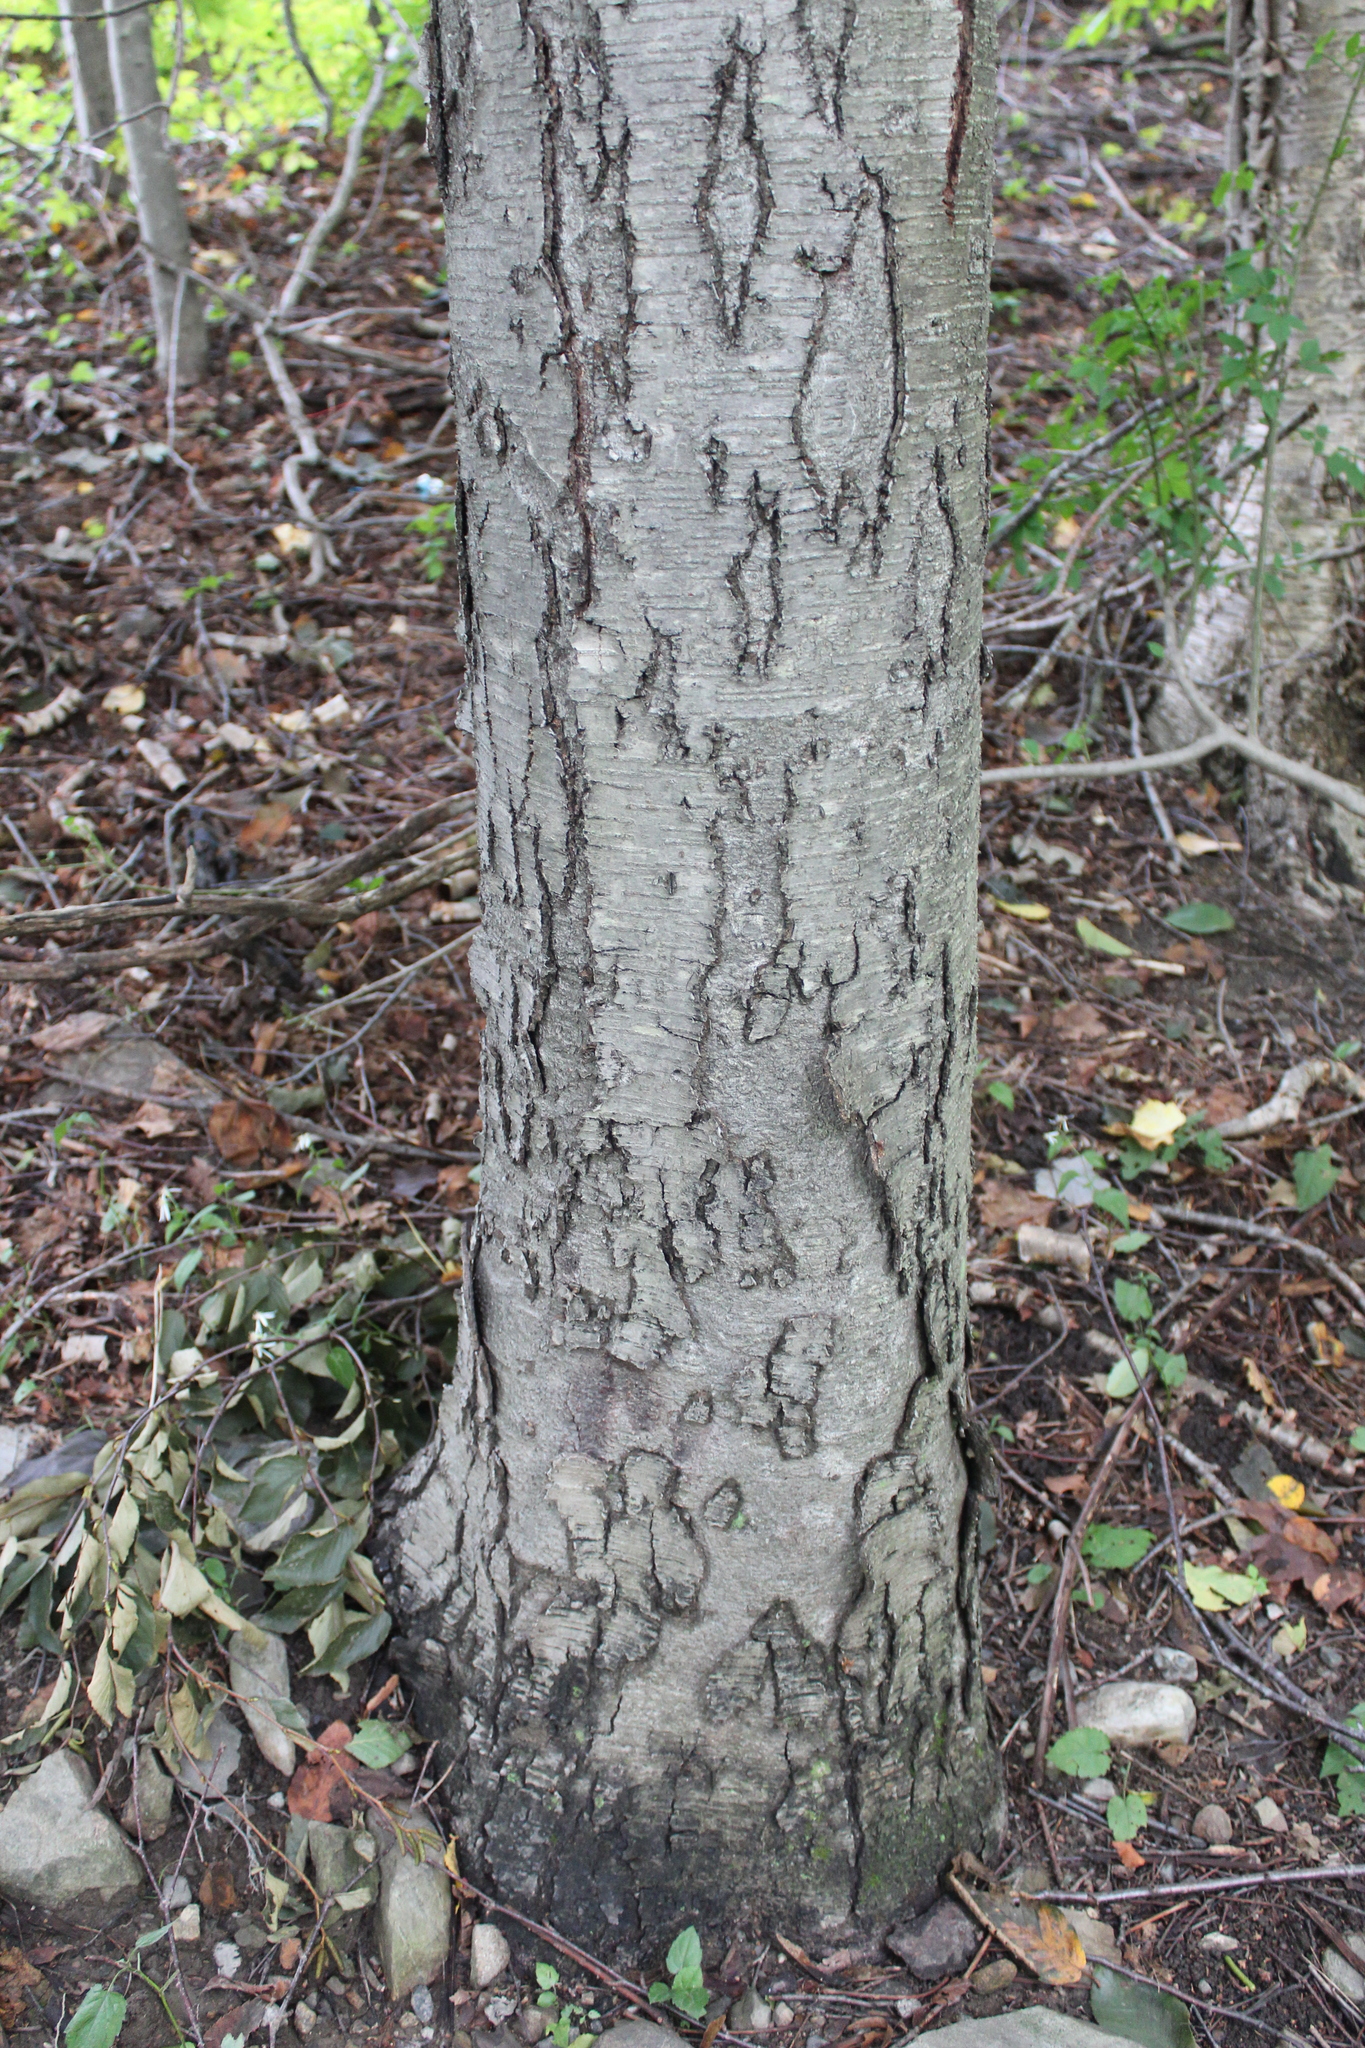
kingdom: Plantae
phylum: Tracheophyta
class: Magnoliopsida
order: Fagales
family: Betulaceae
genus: Betula
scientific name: Betula lenta
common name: Black birch
